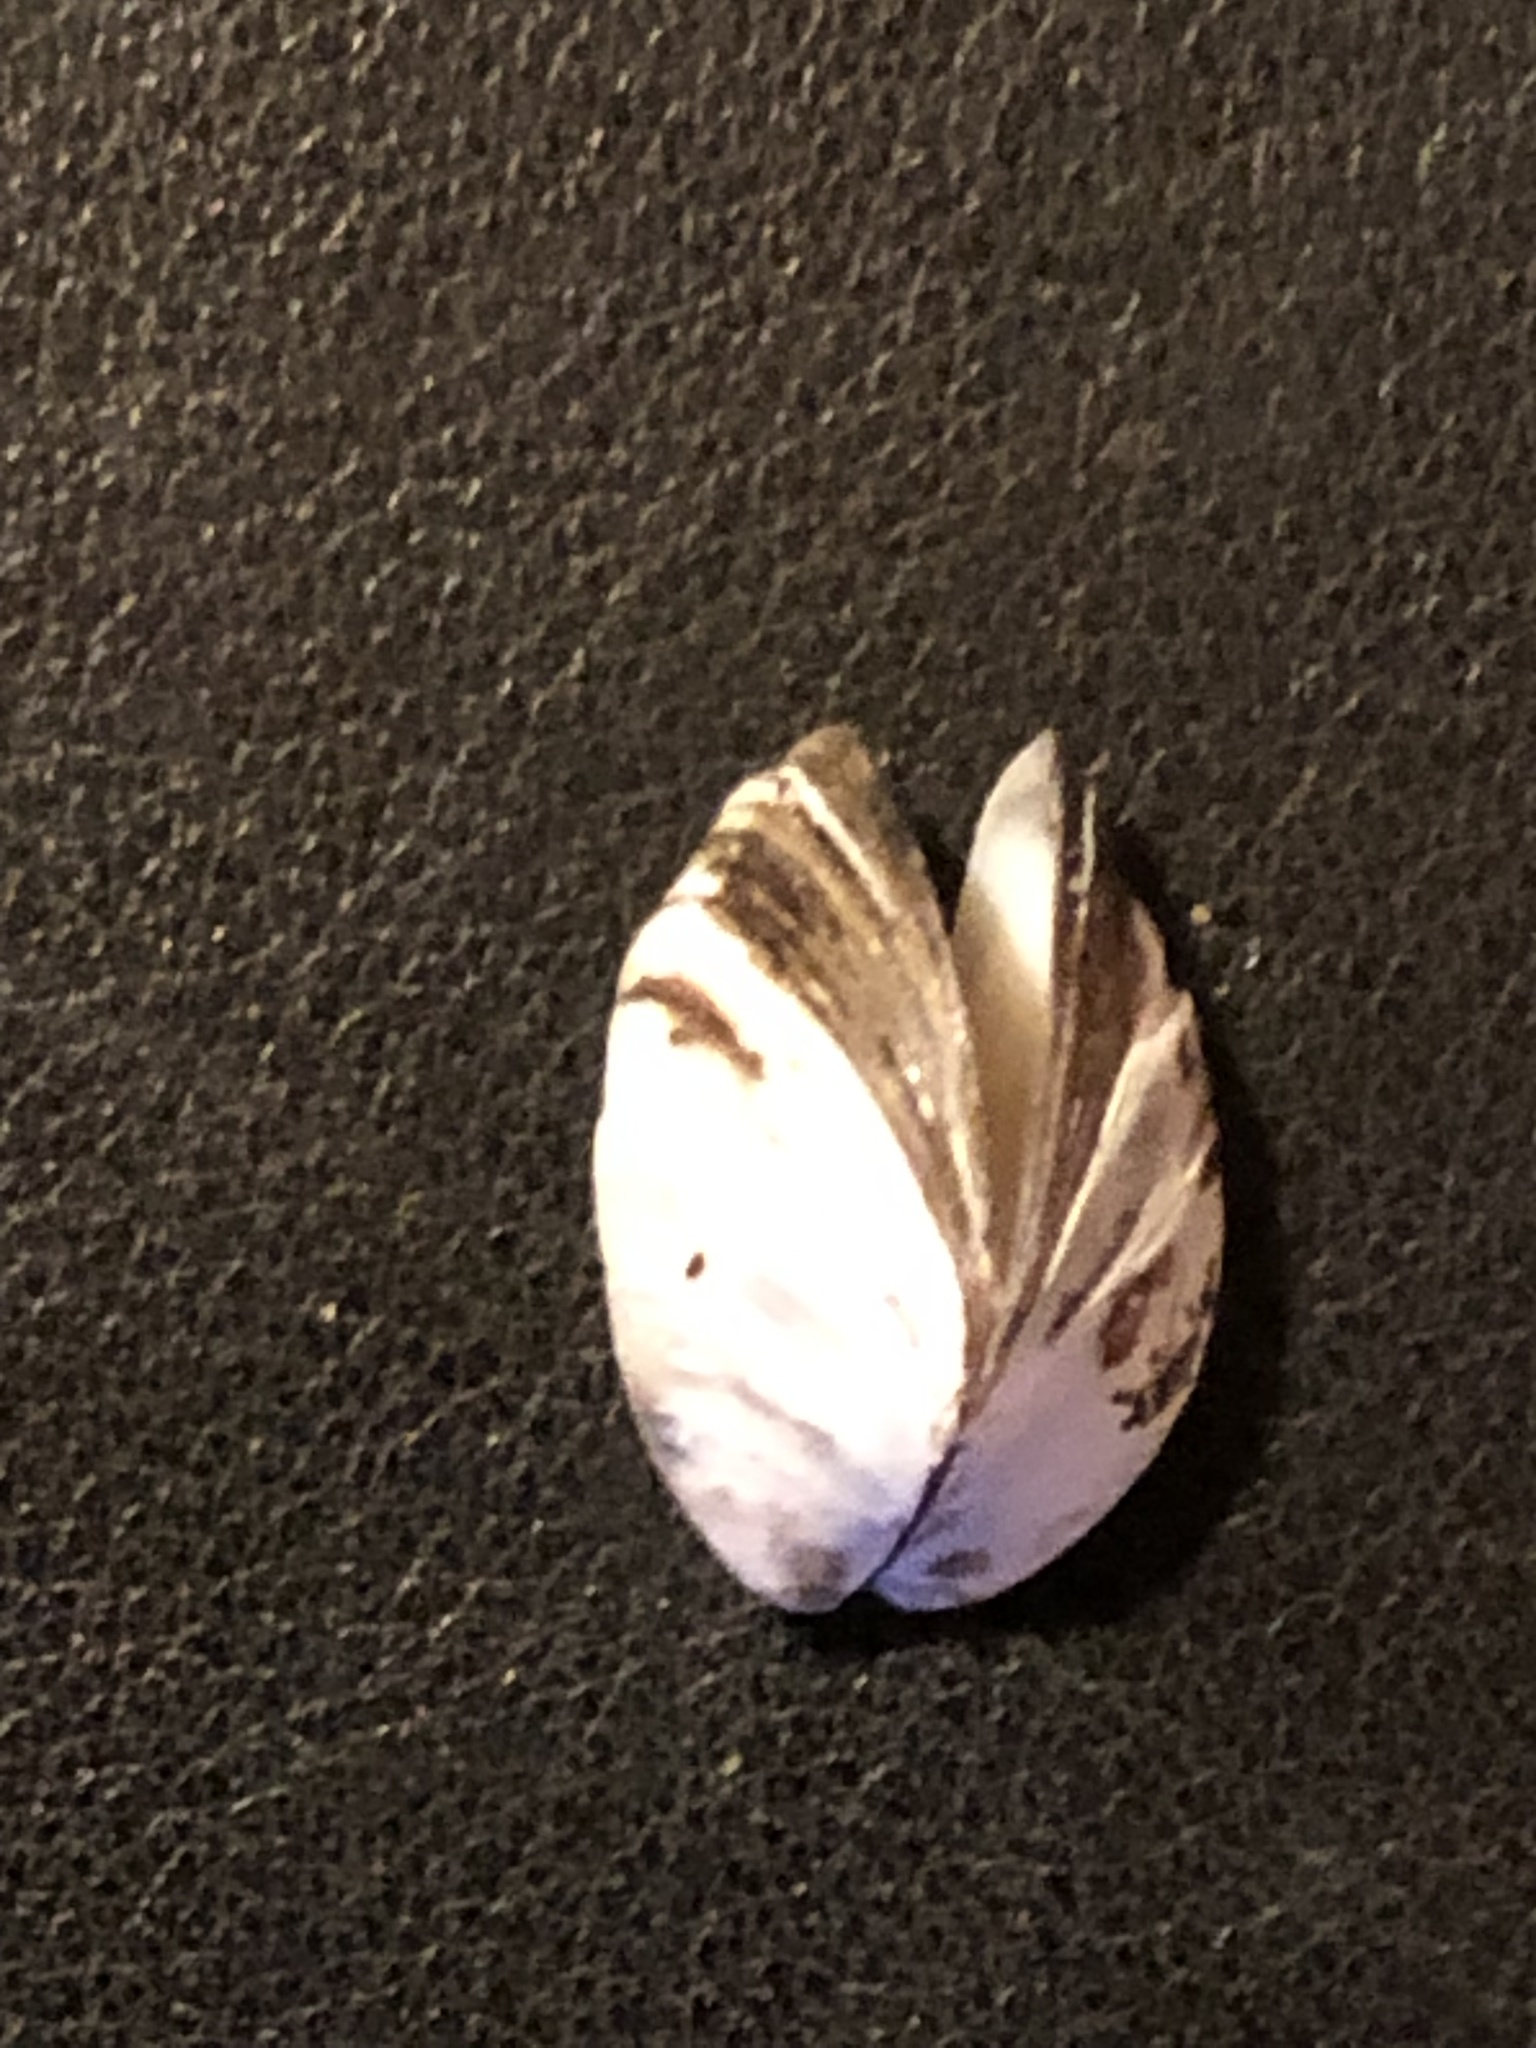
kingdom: Animalia
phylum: Mollusca
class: Bivalvia
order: Myida
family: Dreissenidae
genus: Dreissena
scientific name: Dreissena polymorpha
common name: Zebra mussel
